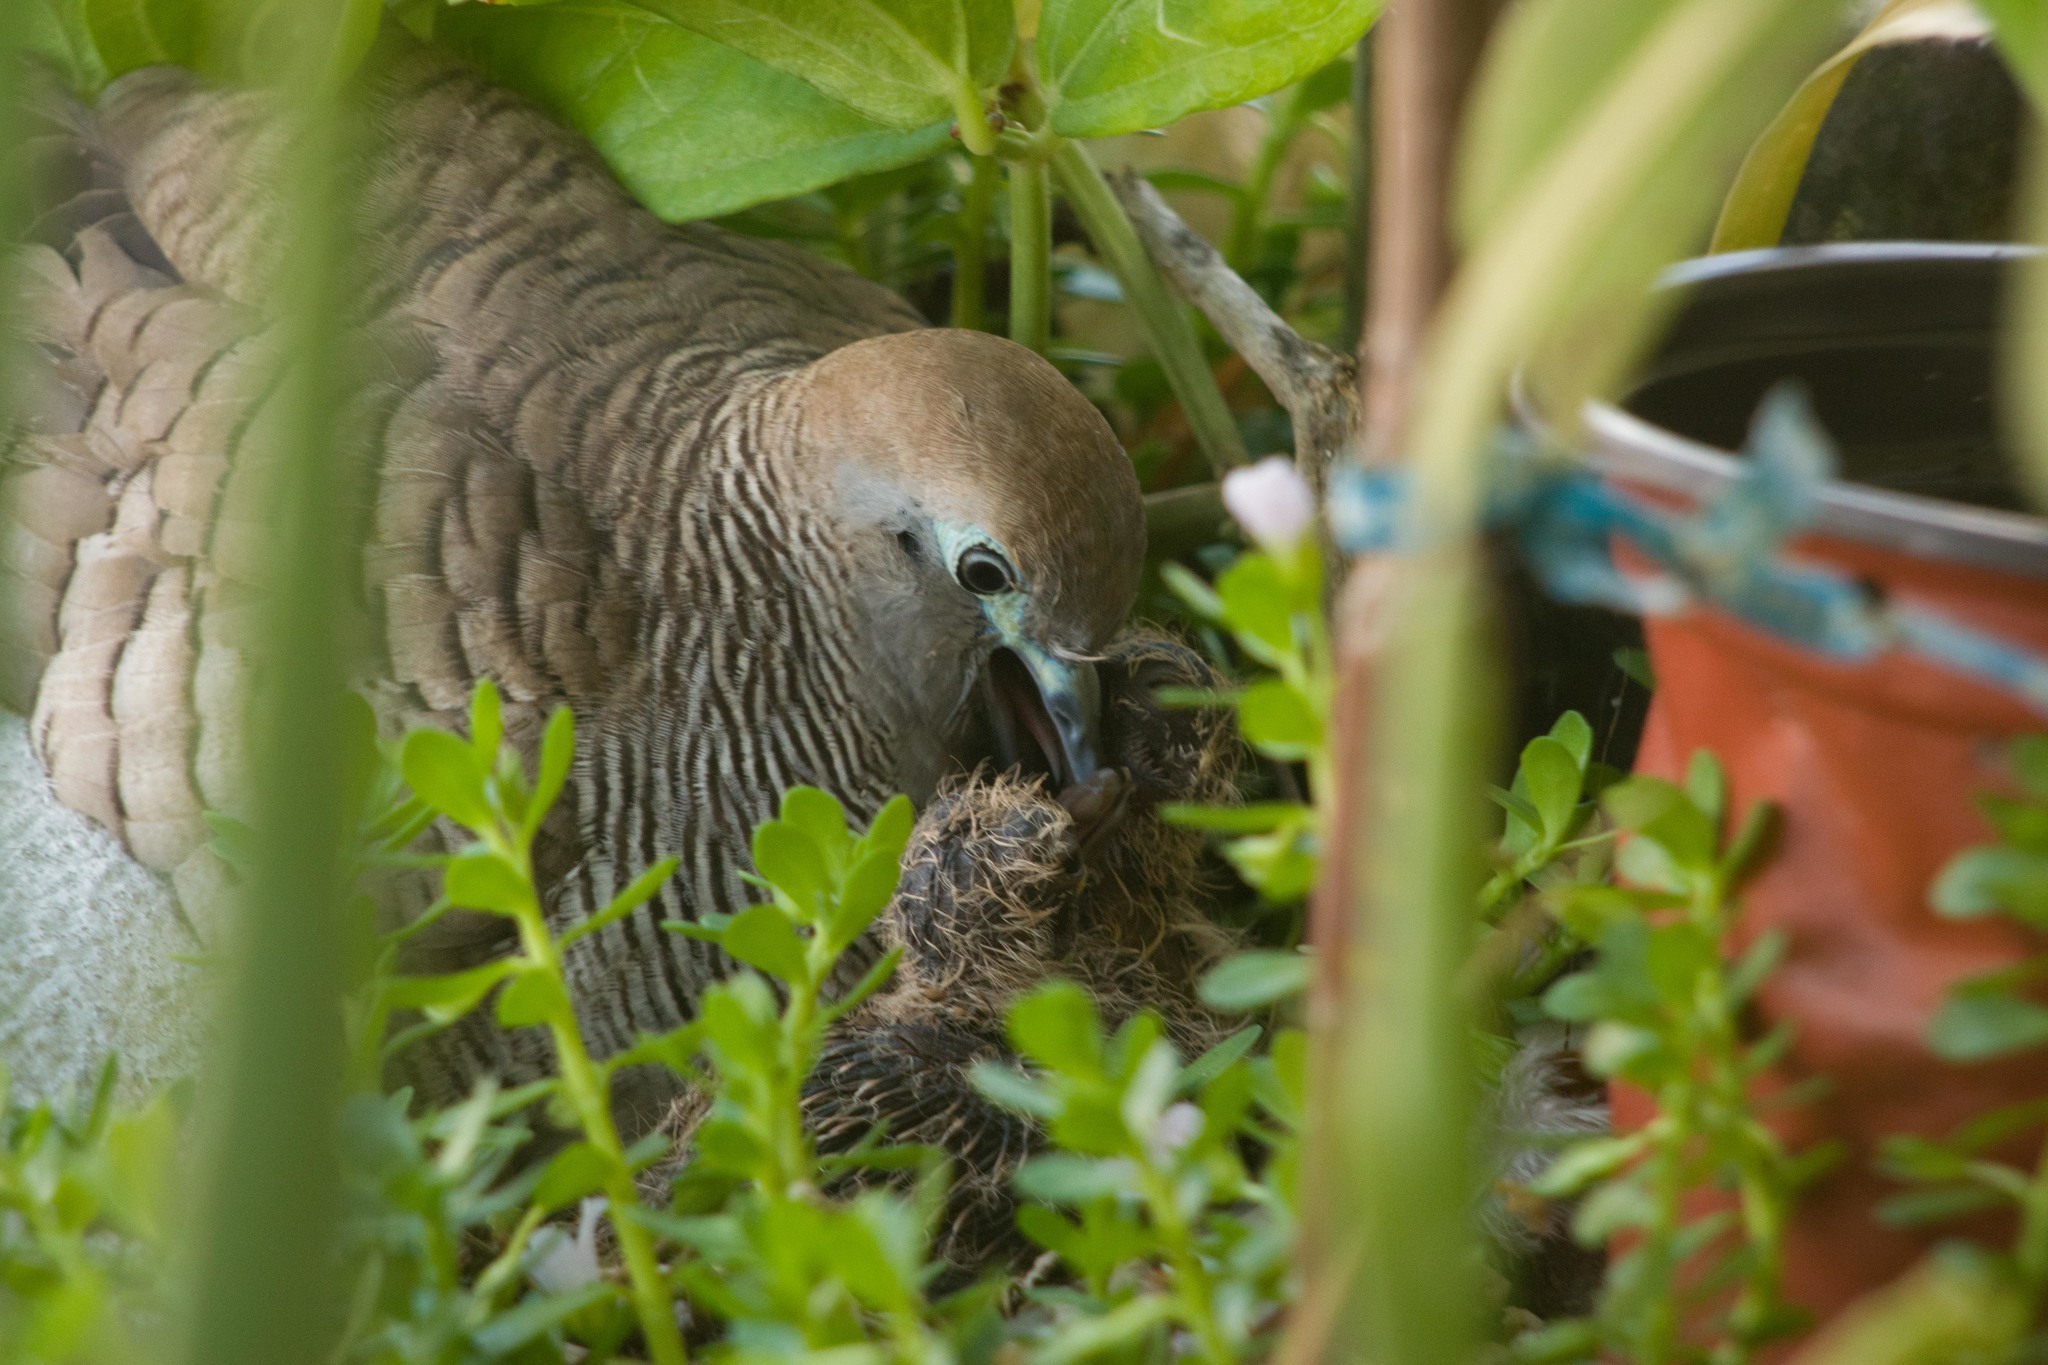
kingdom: Animalia
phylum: Chordata
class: Aves
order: Columbiformes
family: Columbidae
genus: Geopelia
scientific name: Geopelia striata
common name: Zebra dove
